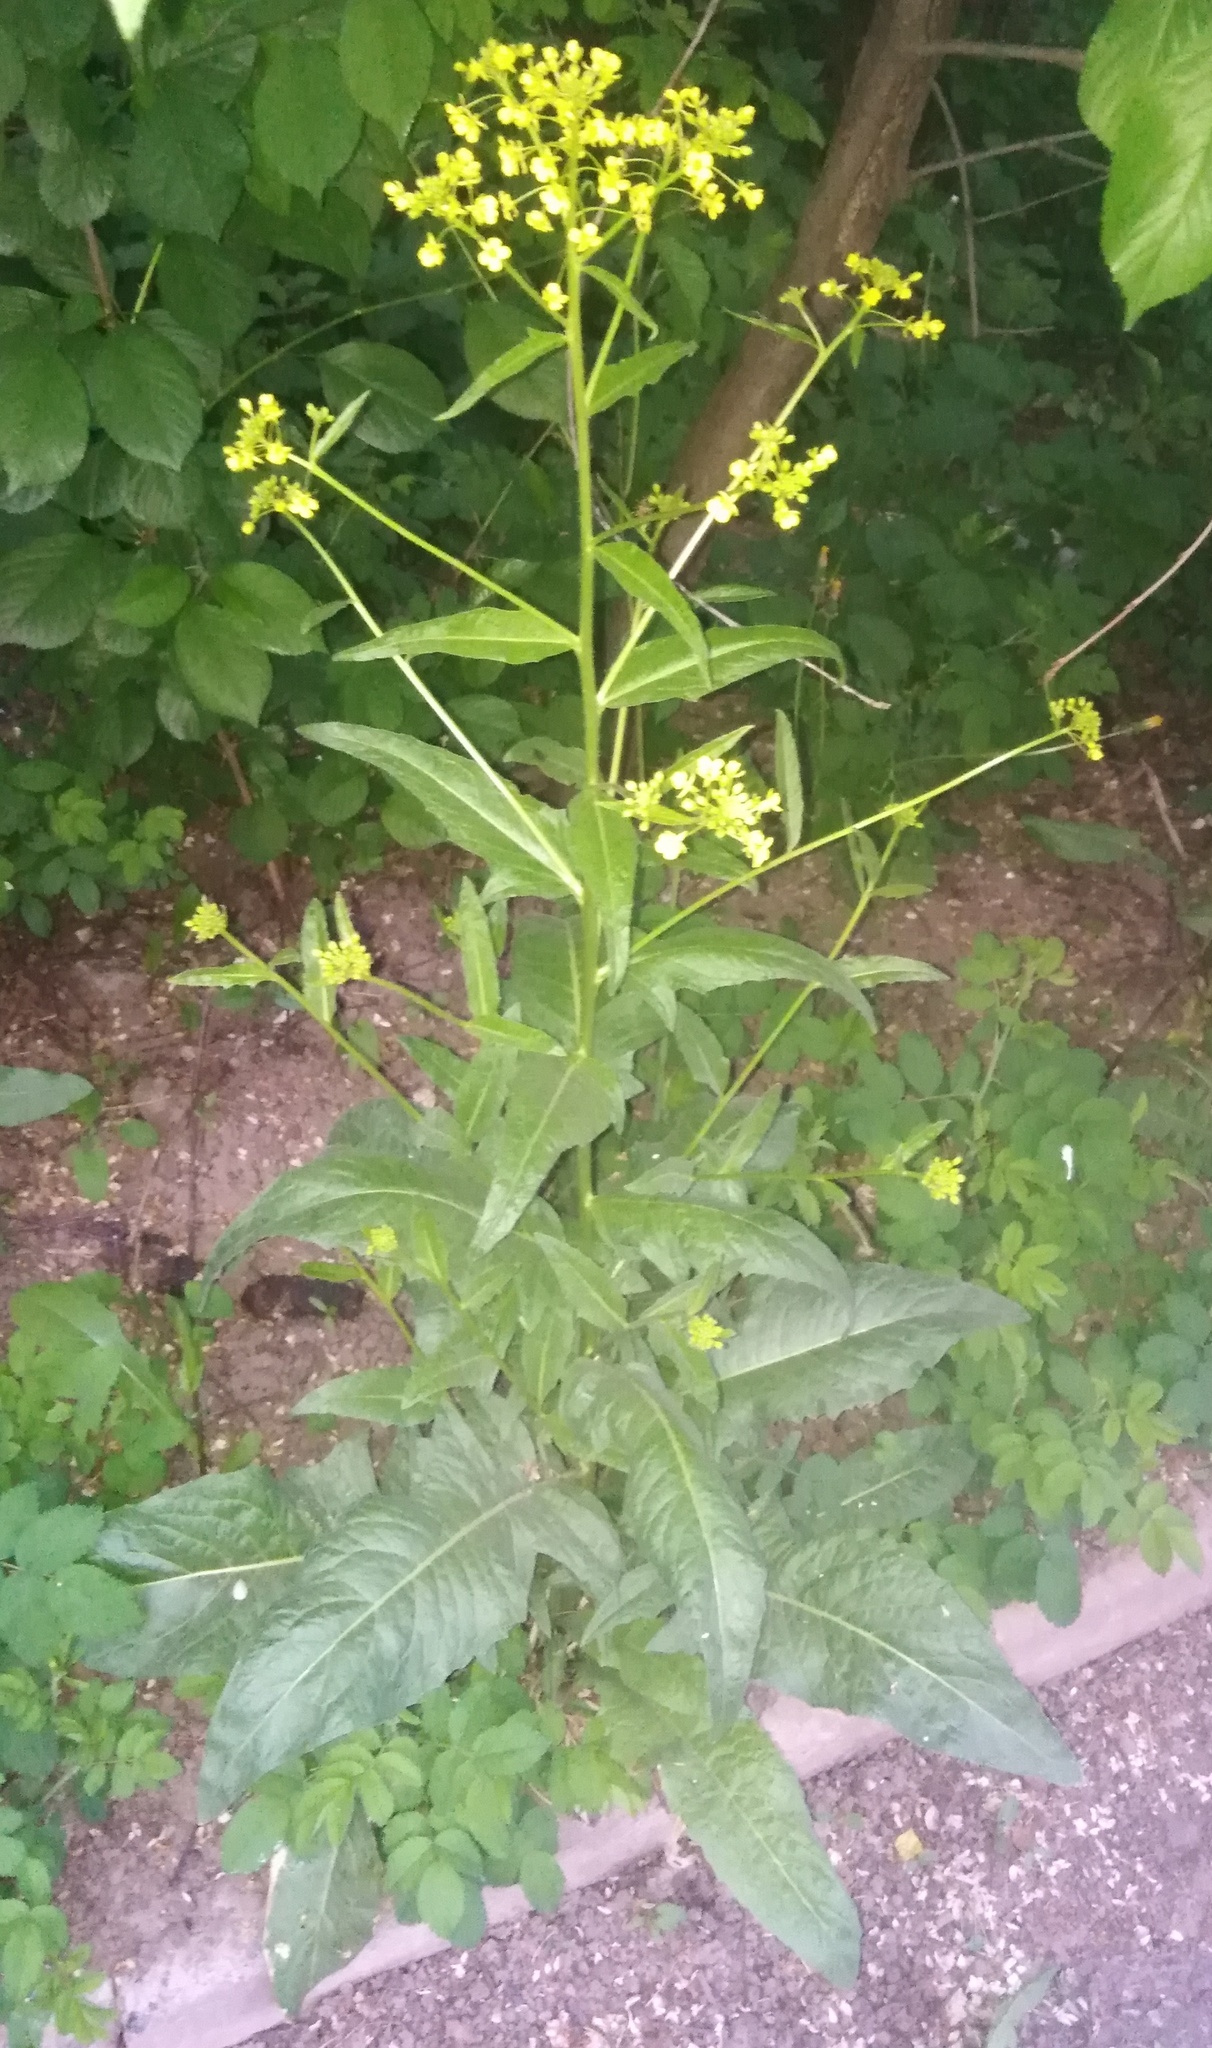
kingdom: Plantae
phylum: Tracheophyta
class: Magnoliopsida
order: Brassicales
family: Brassicaceae
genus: Bunias
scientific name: Bunias orientalis
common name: Warty-cabbage
